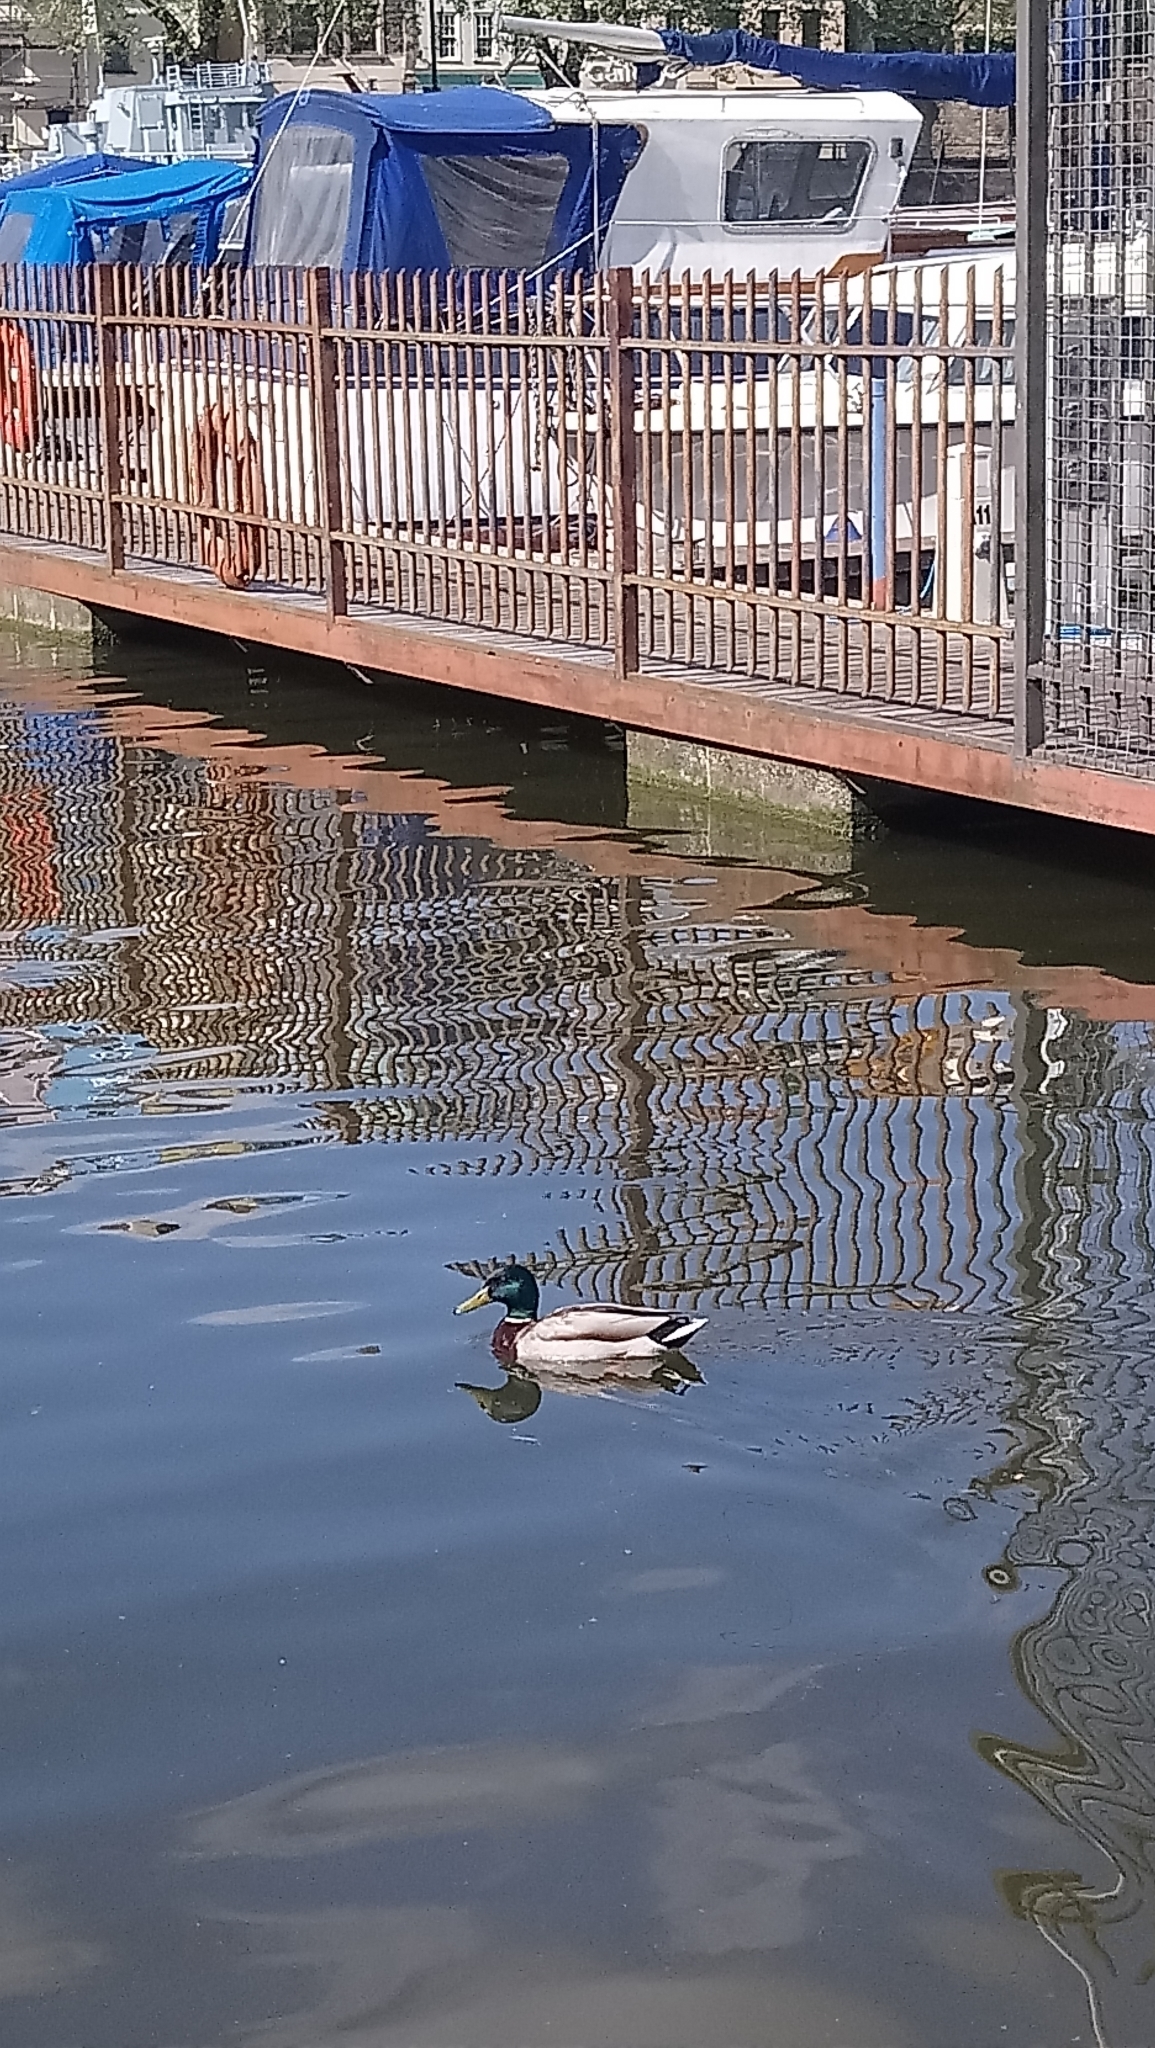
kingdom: Animalia
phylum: Chordata
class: Aves
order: Anseriformes
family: Anatidae
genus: Anas
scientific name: Anas platyrhynchos
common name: Mallard
